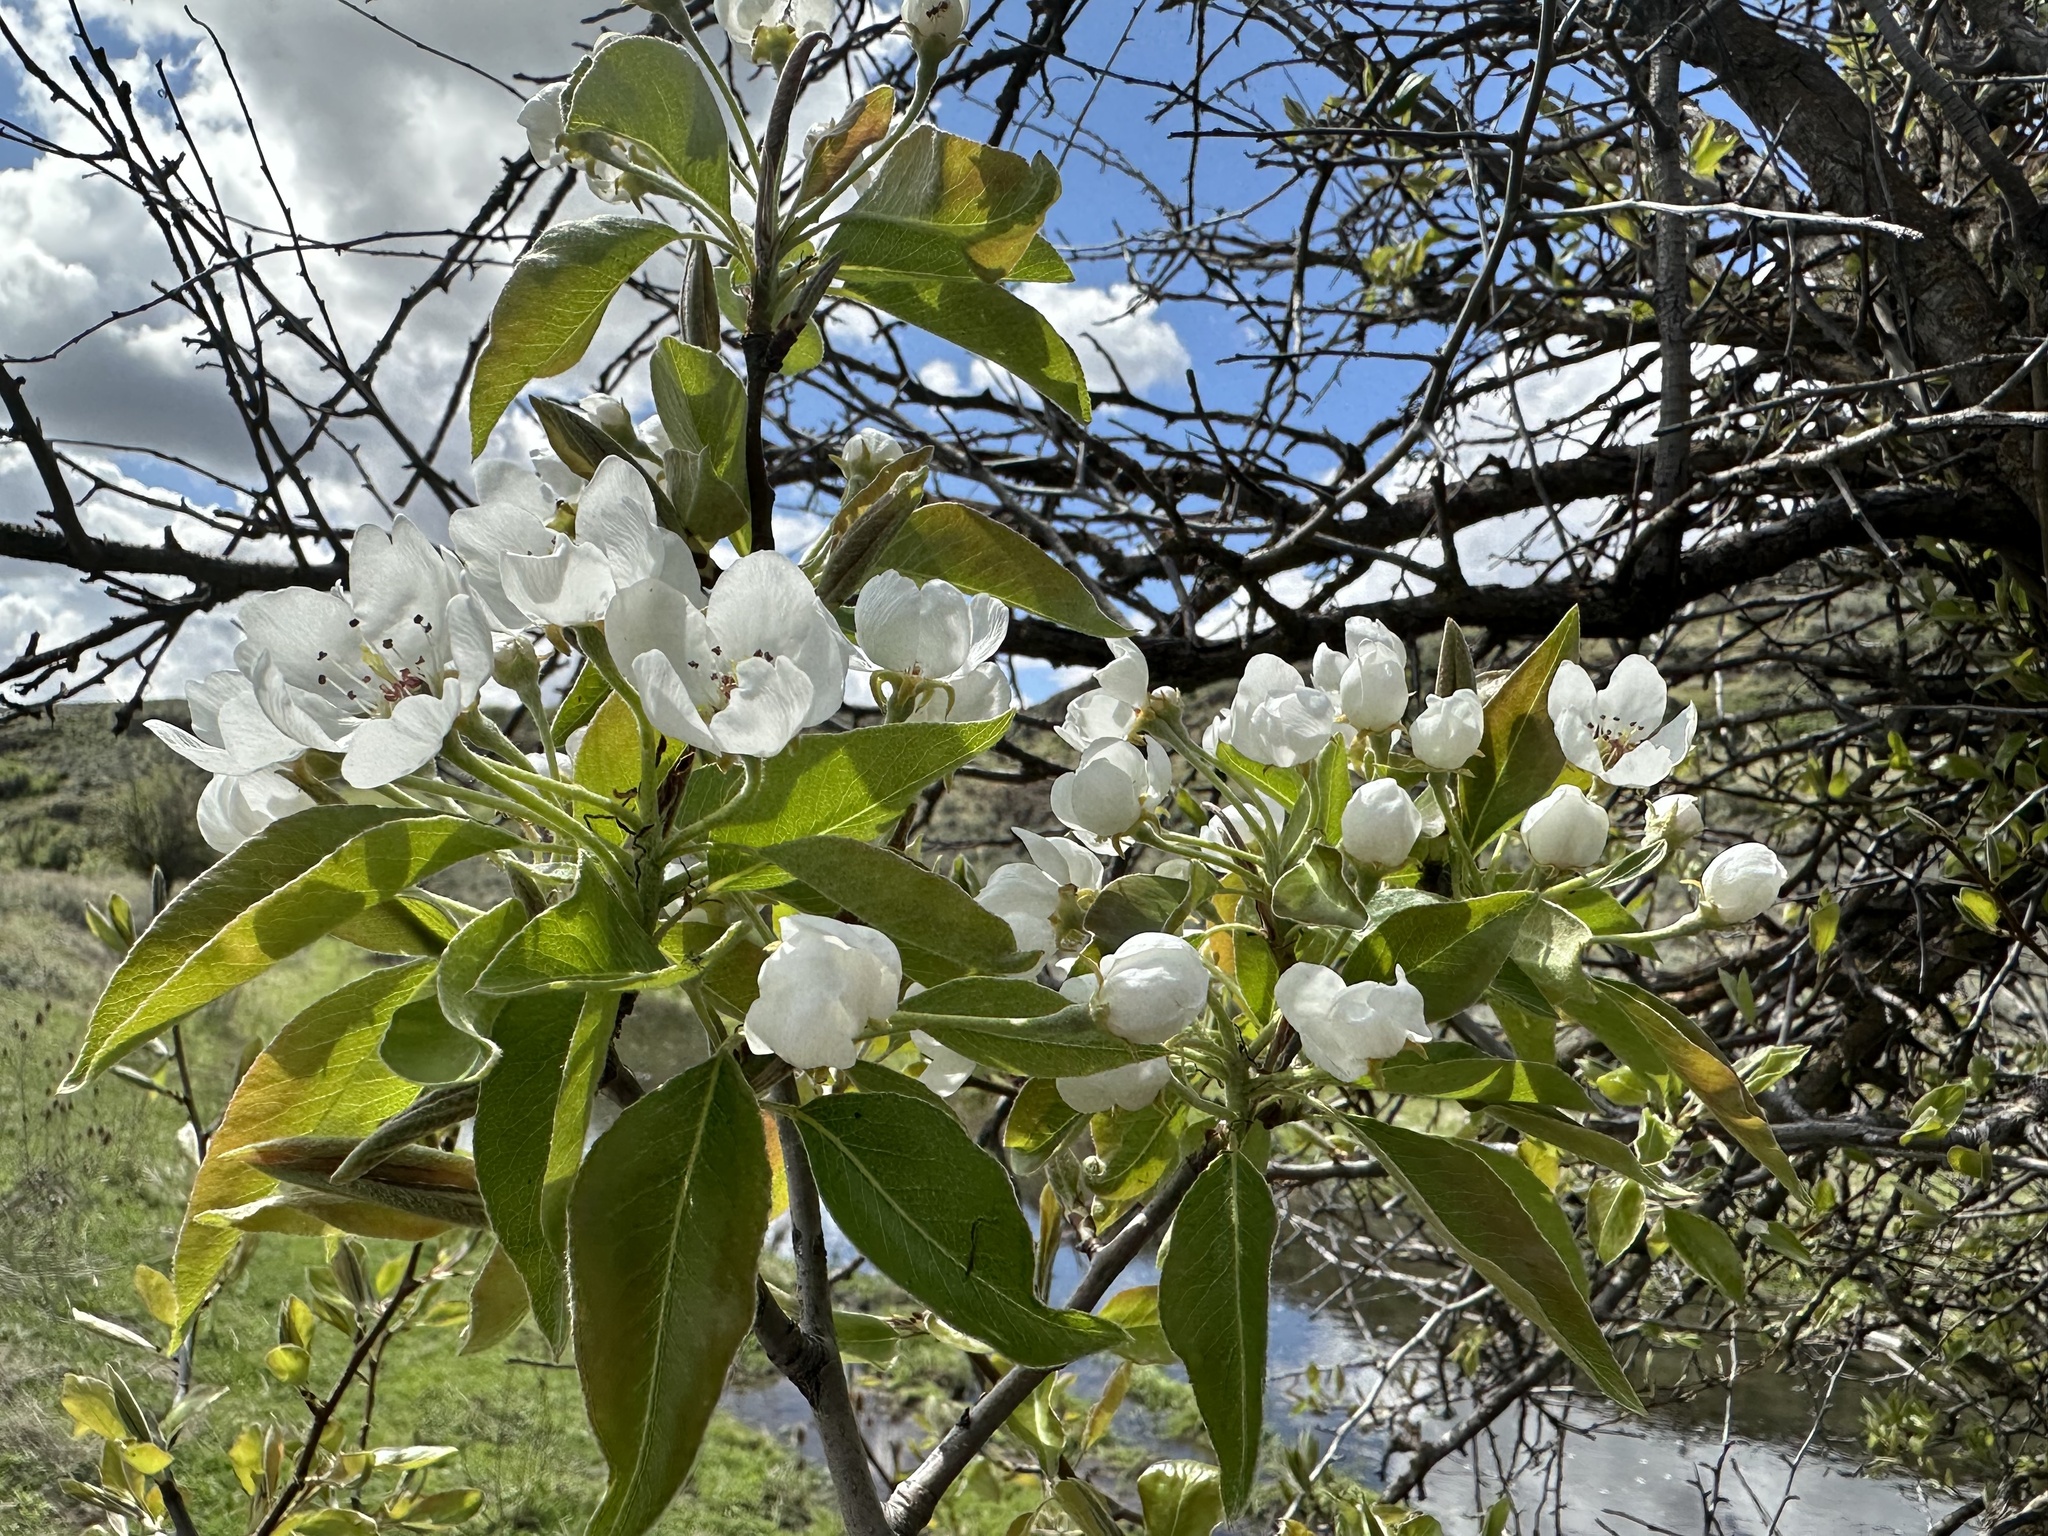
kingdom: Plantae
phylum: Tracheophyta
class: Magnoliopsida
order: Rosales
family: Rosaceae
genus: Malus
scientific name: Malus domestica
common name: Apple
